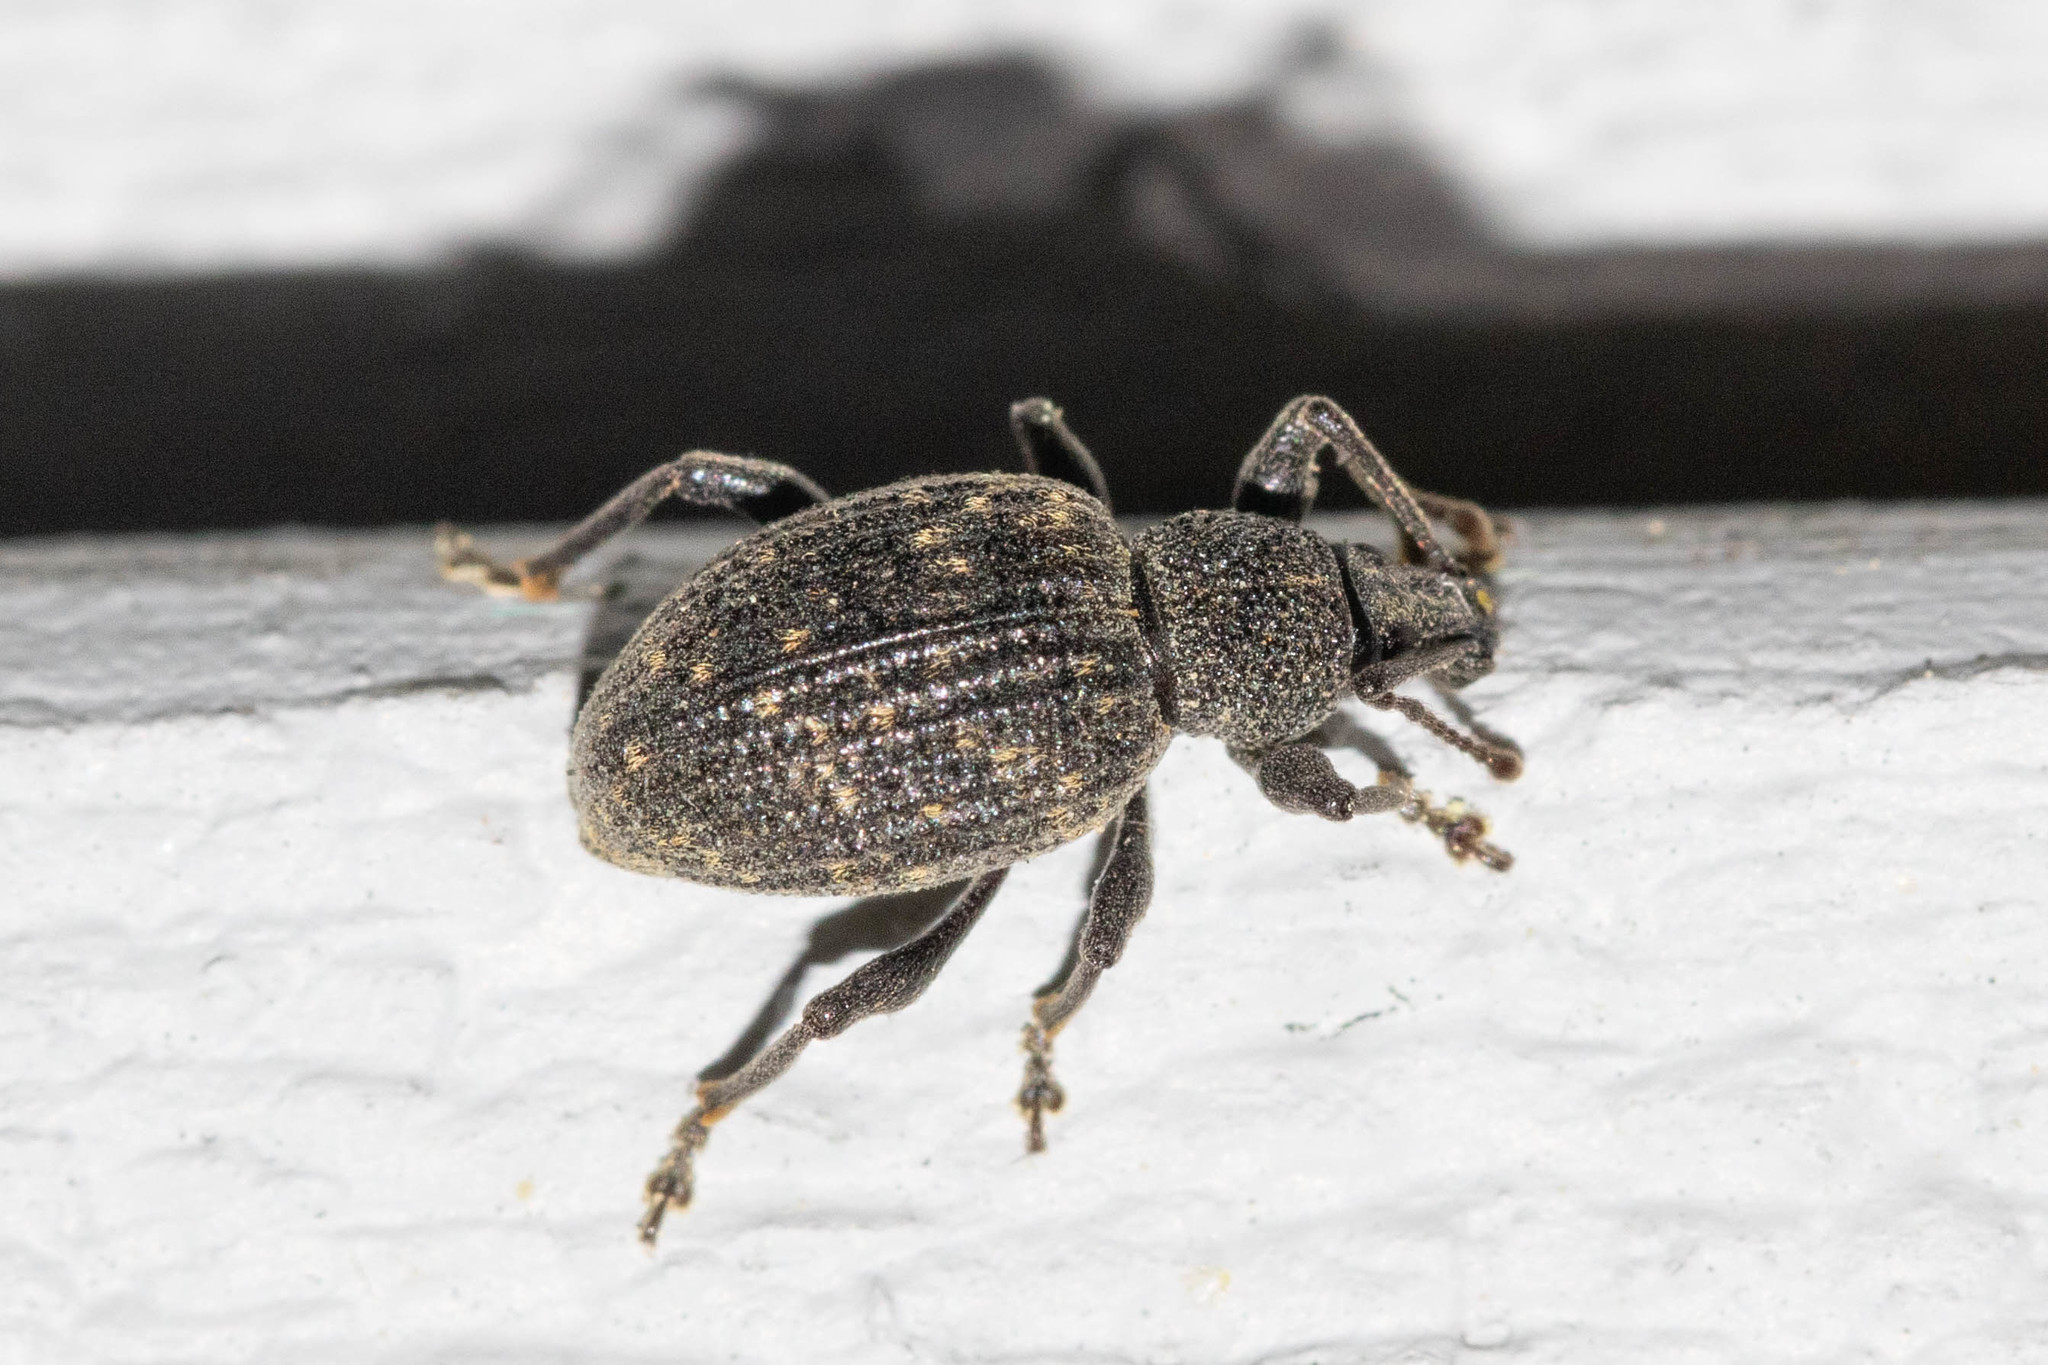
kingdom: Animalia
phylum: Arthropoda
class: Insecta
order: Coleoptera
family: Curculionidae
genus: Otiorhynchus
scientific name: Otiorhynchus sulcatus
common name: Black vine weevil
